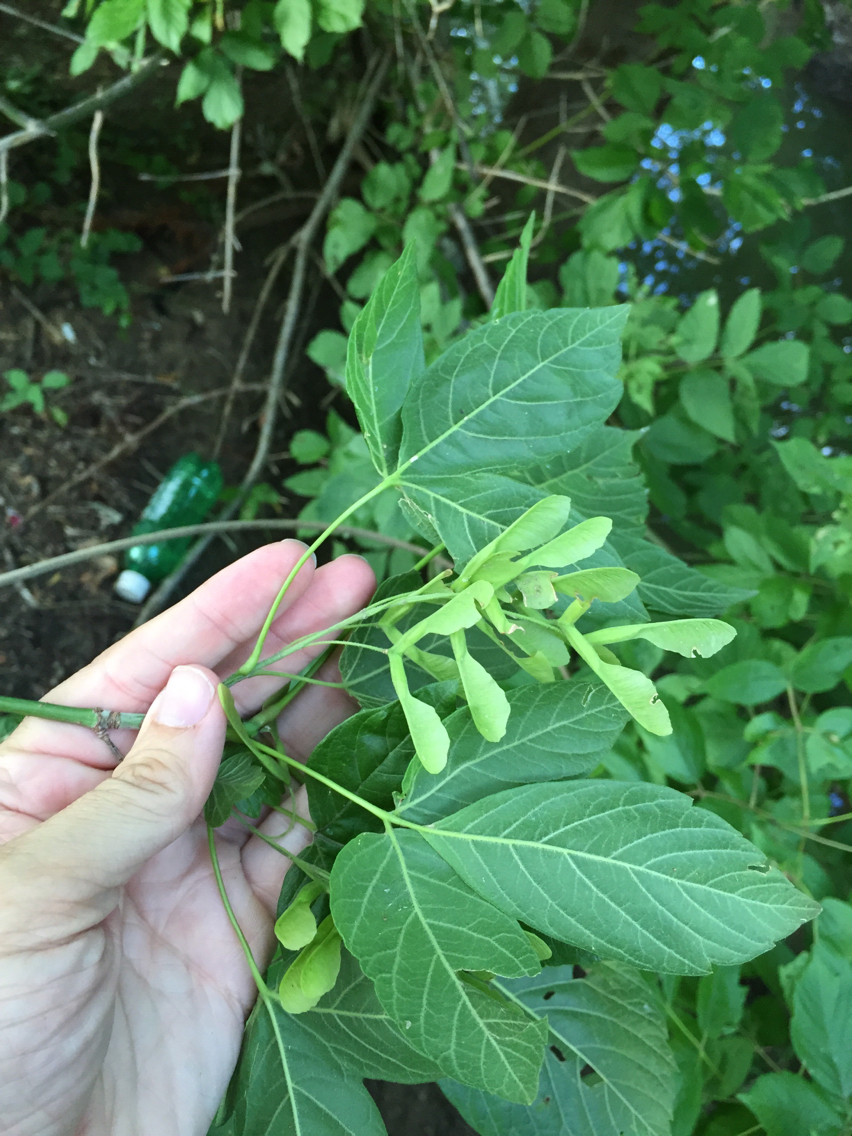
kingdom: Plantae
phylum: Tracheophyta
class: Magnoliopsida
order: Sapindales
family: Sapindaceae
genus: Acer
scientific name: Acer negundo
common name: Ashleaf maple
